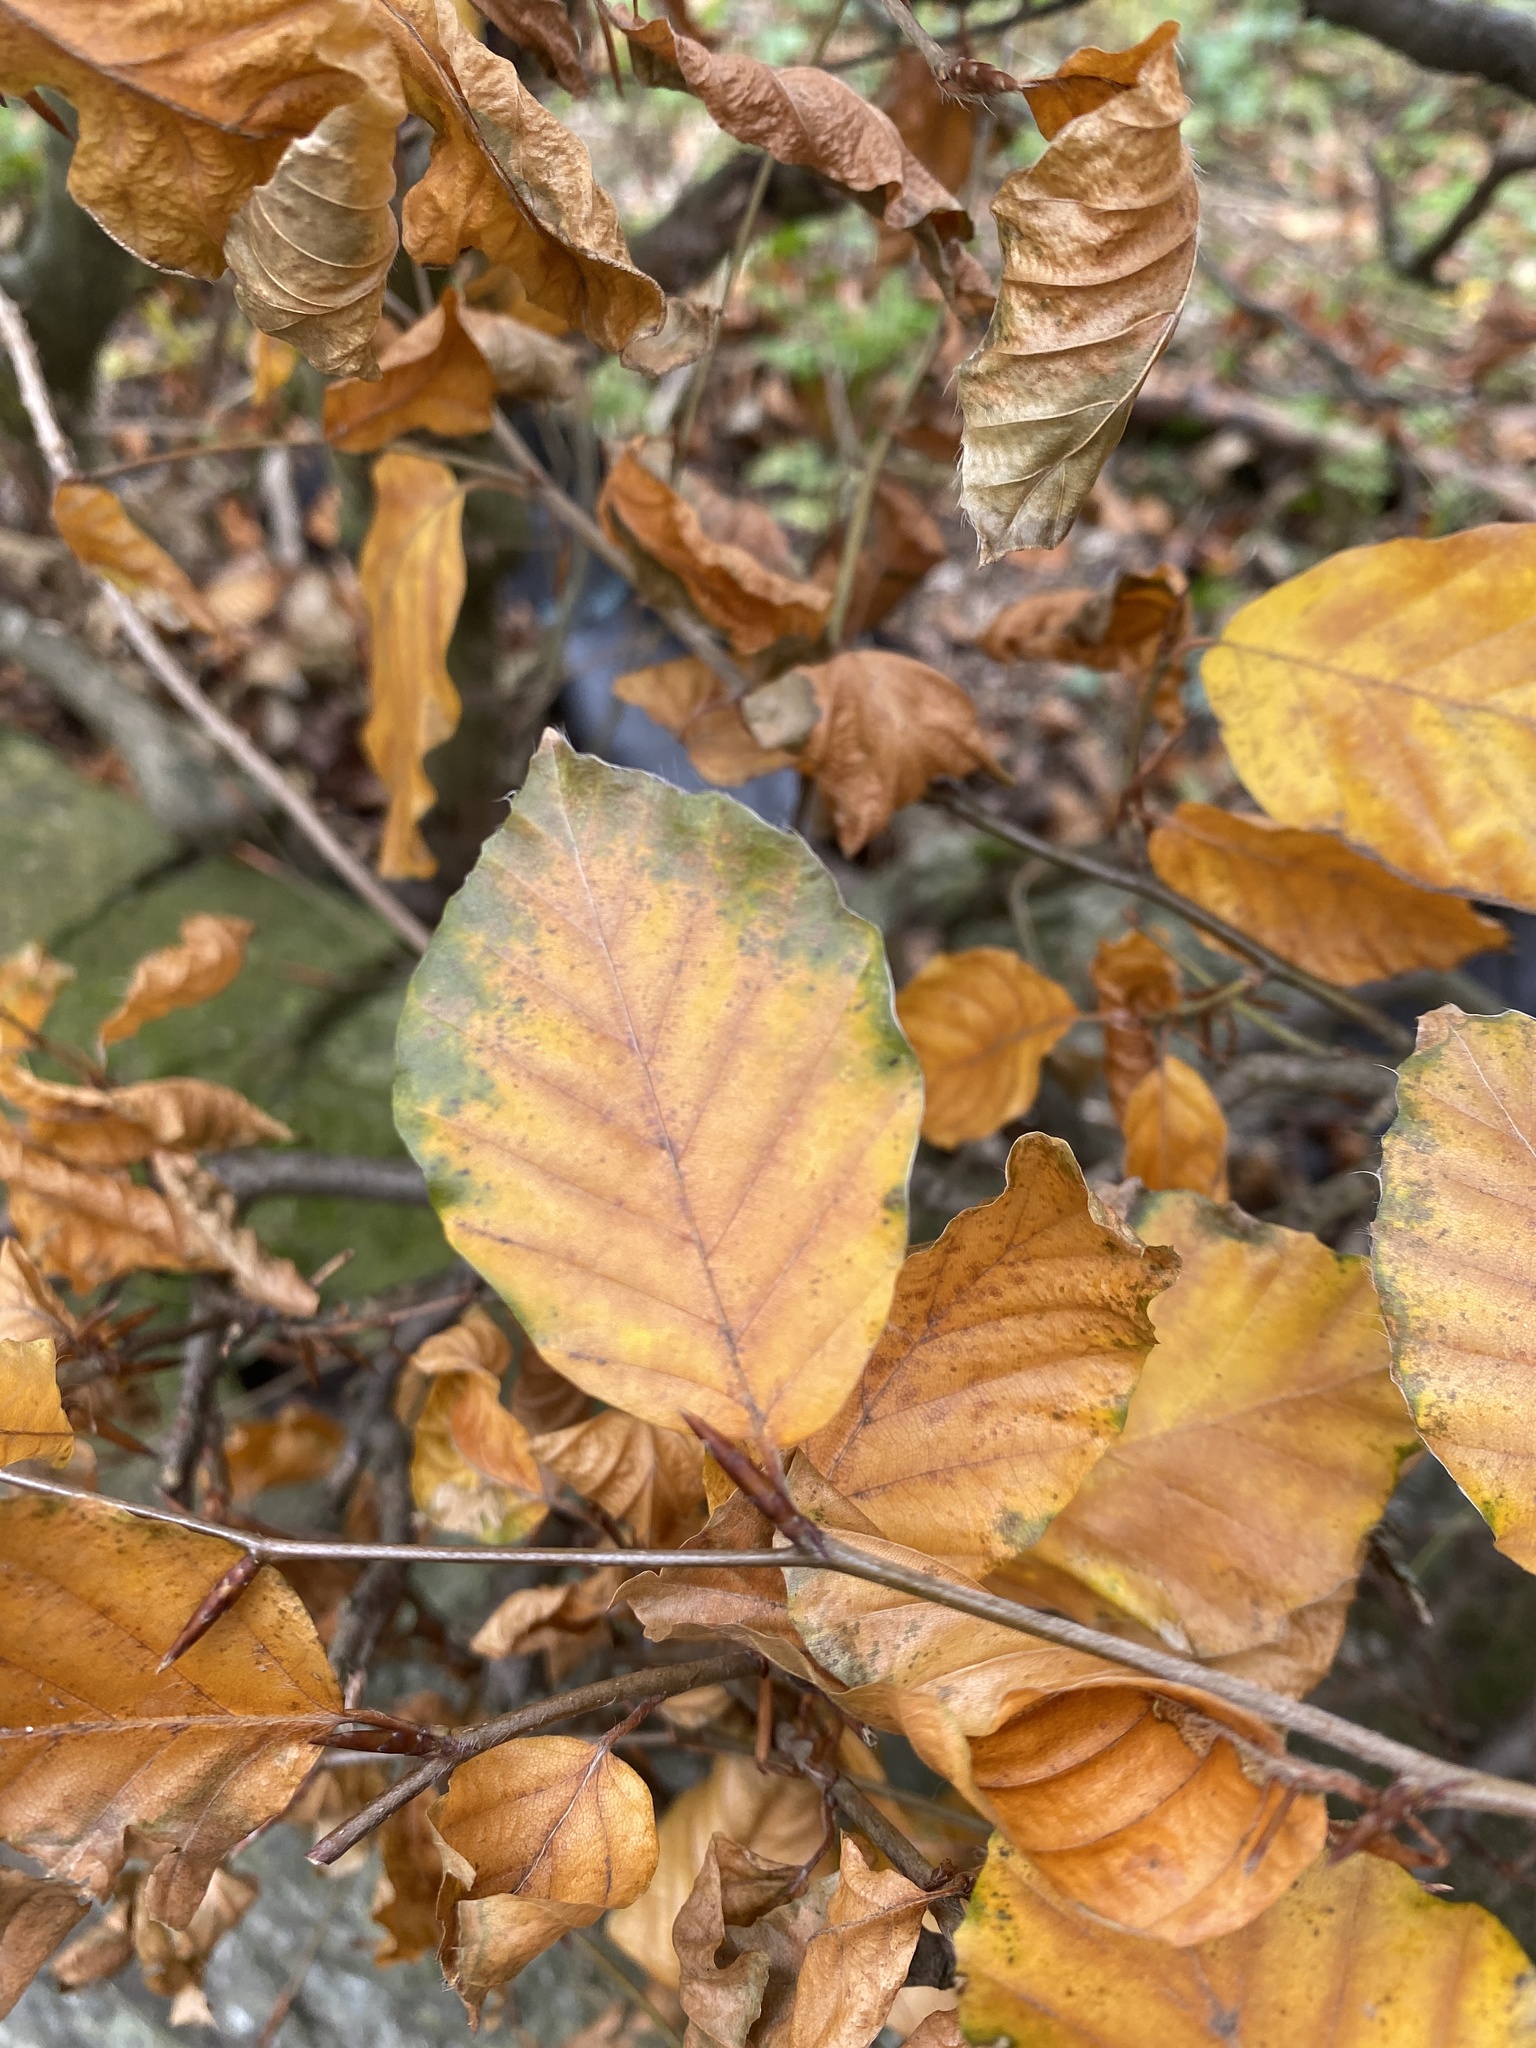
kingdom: Plantae
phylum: Tracheophyta
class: Magnoliopsida
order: Fagales
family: Fagaceae
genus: Fagus
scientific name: Fagus sylvatica
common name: Beech
